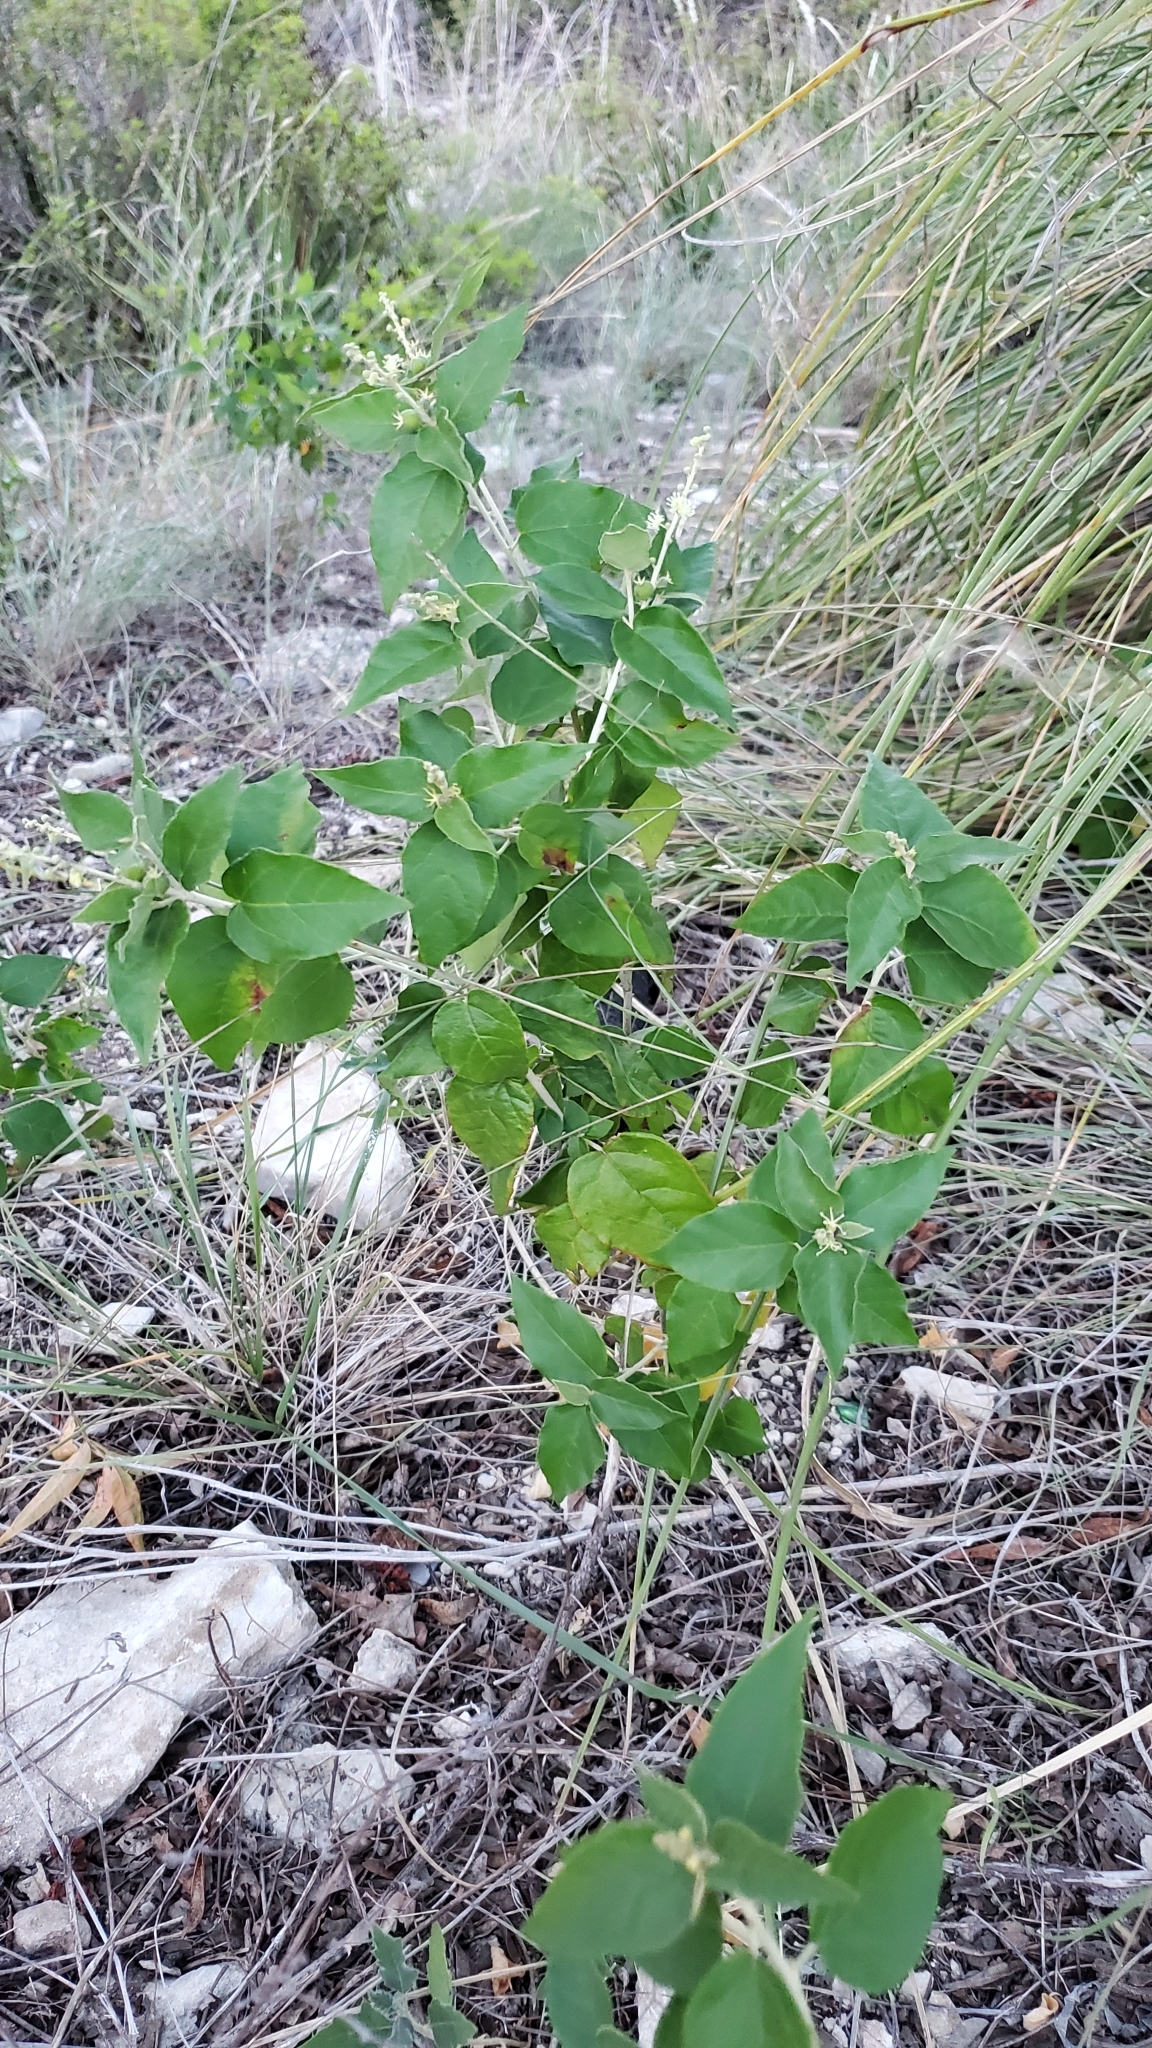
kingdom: Plantae
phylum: Tracheophyta
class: Magnoliopsida
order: Malpighiales
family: Euphorbiaceae
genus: Croton
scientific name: Croton fruticulosus
